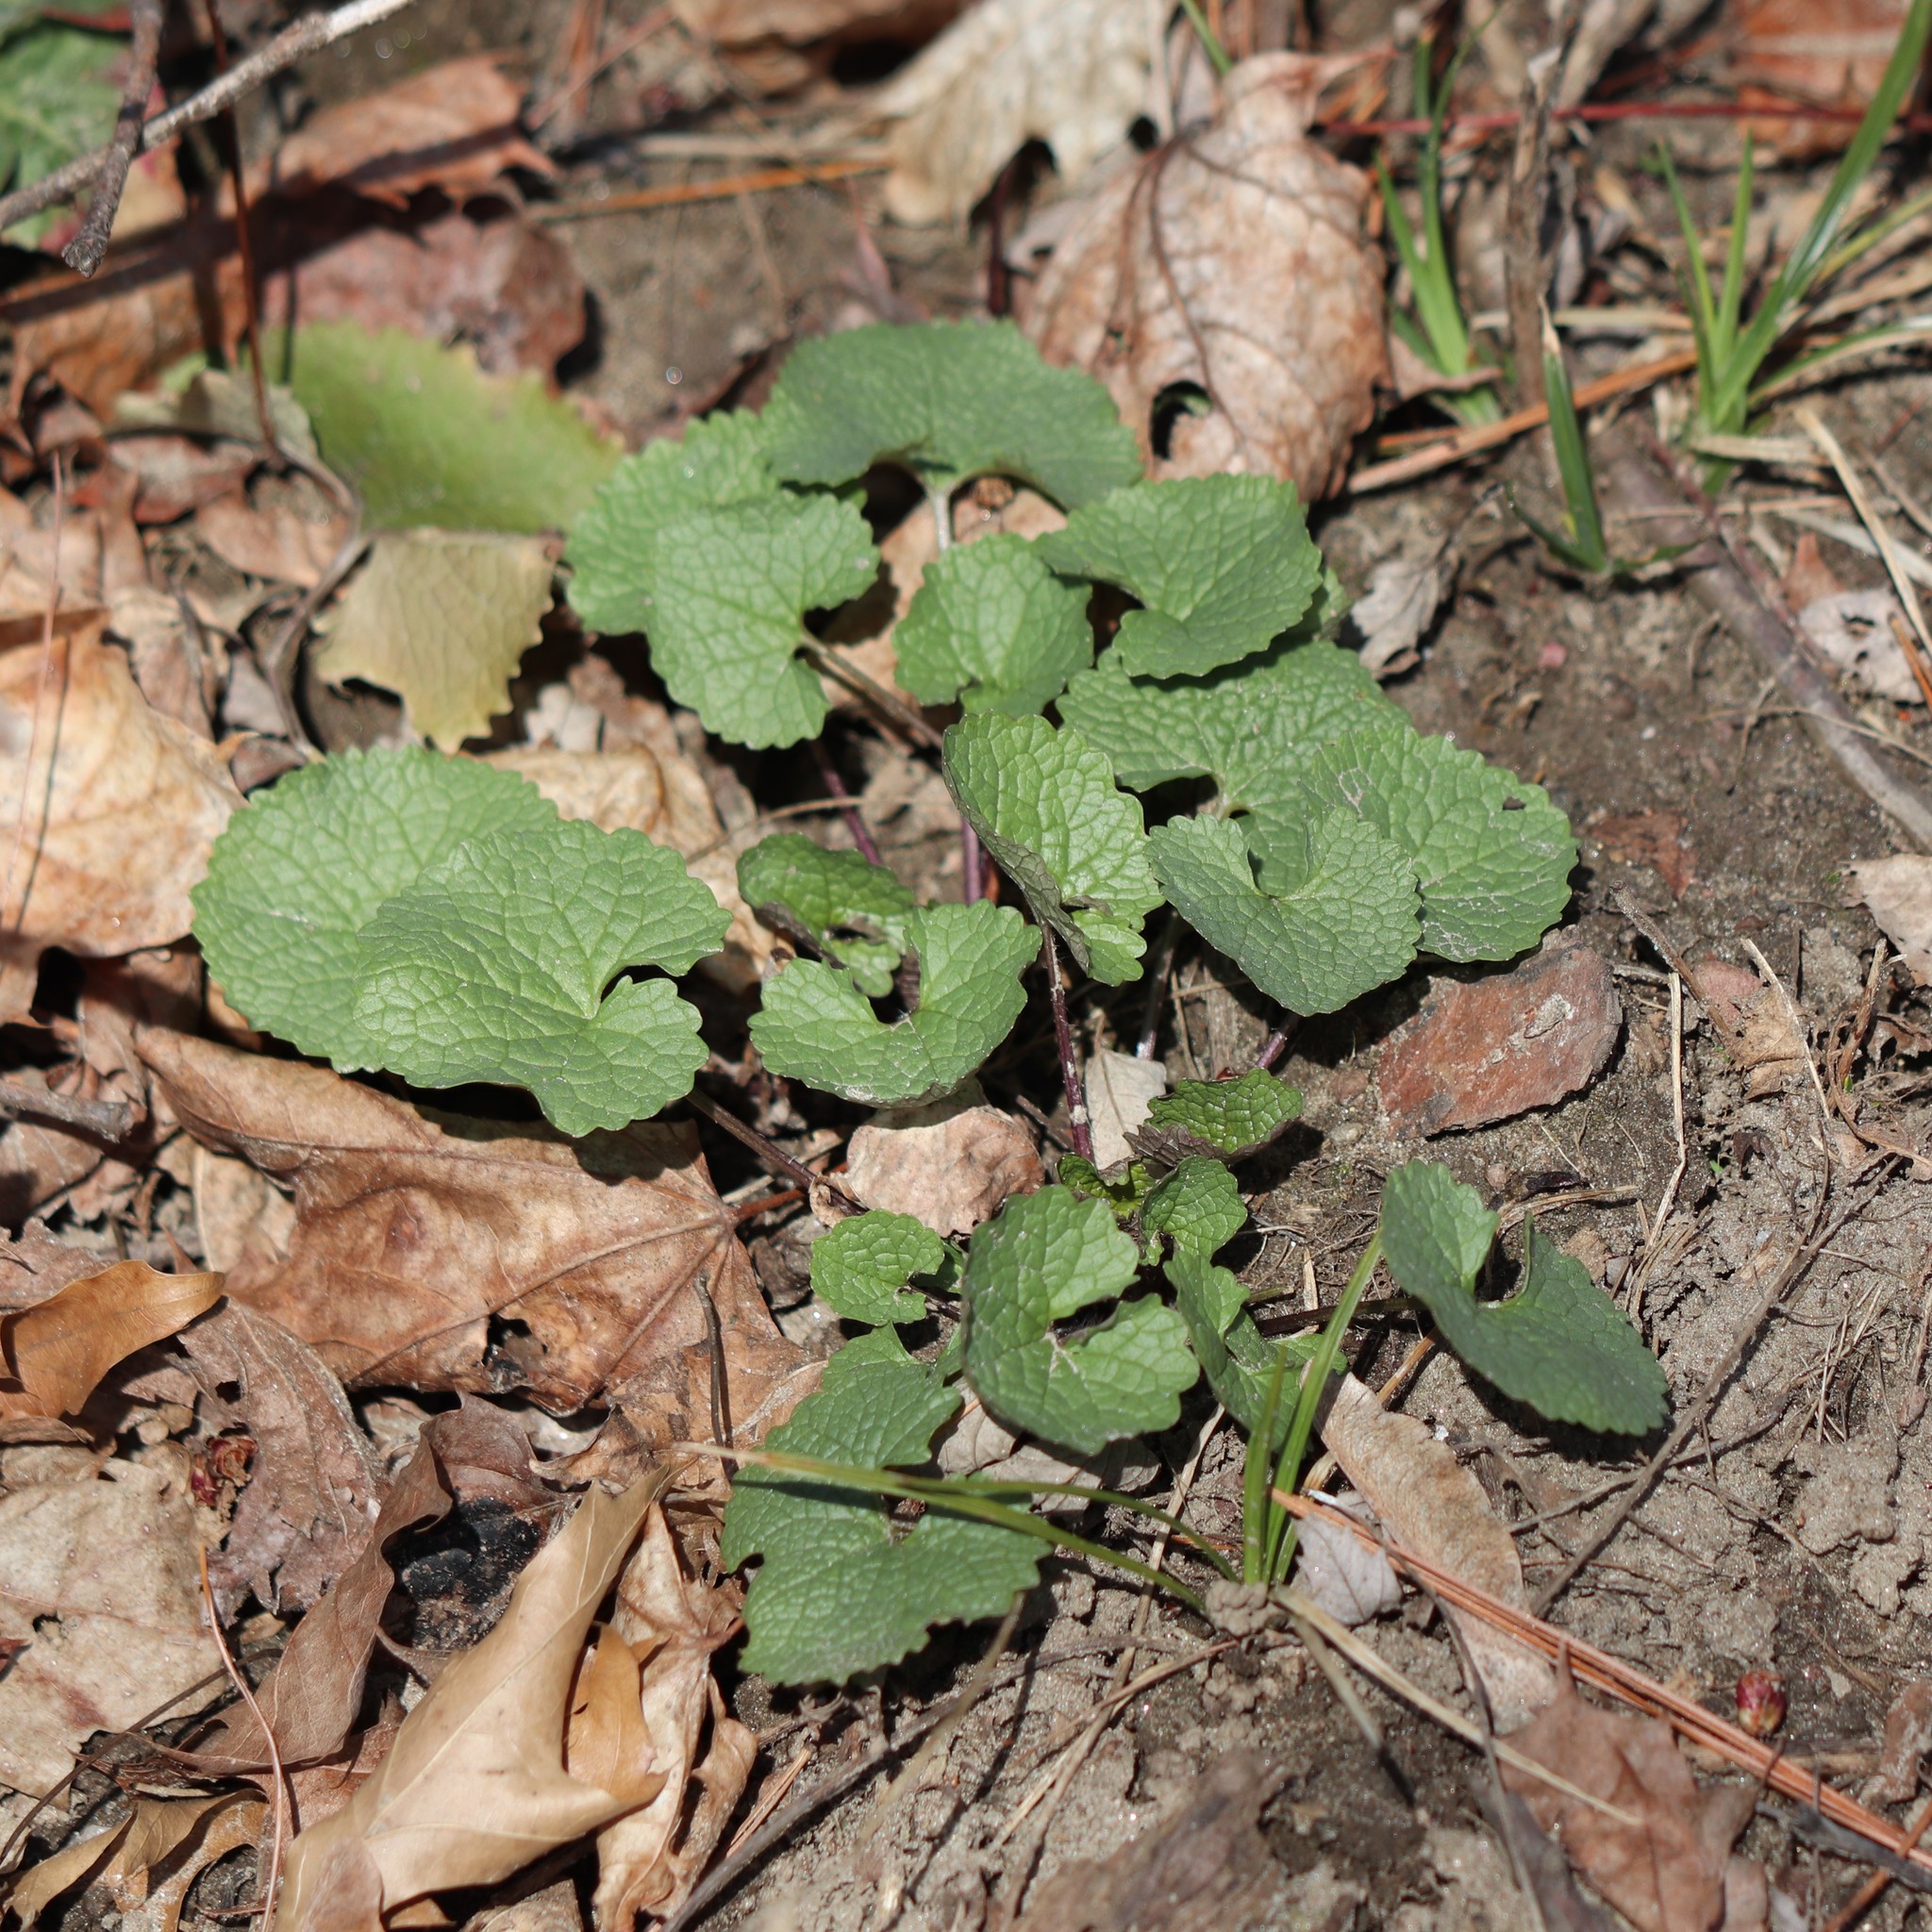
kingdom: Plantae
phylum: Tracheophyta
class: Magnoliopsida
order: Brassicales
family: Brassicaceae
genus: Alliaria
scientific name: Alliaria petiolata
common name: Garlic mustard
